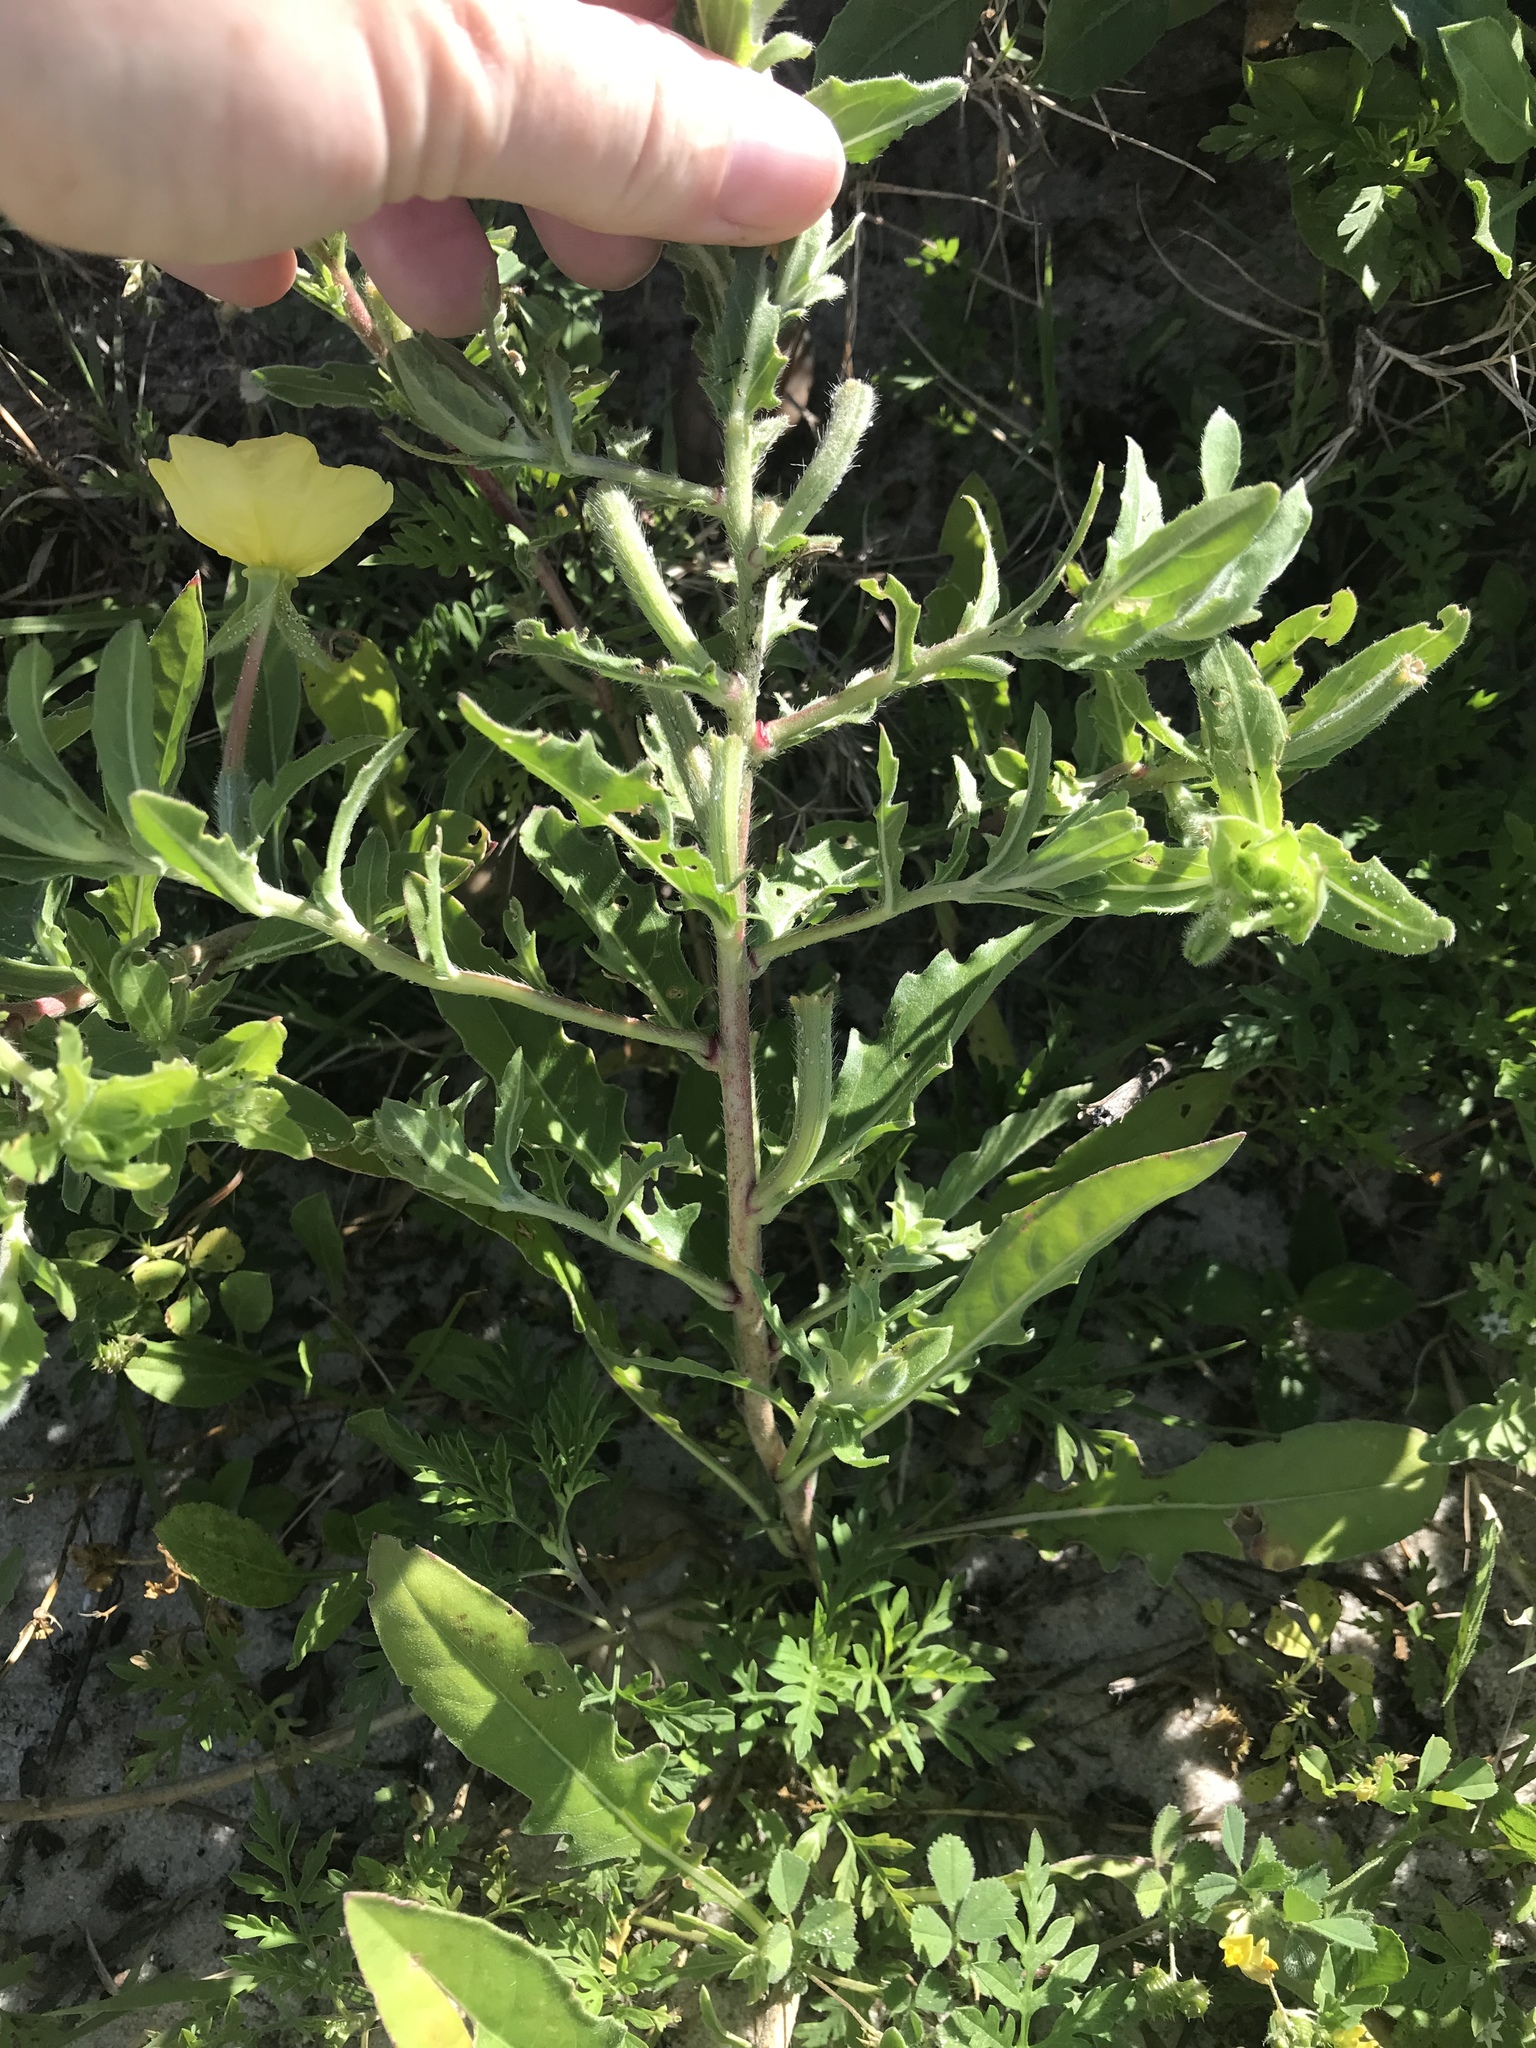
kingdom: Plantae
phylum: Tracheophyta
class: Magnoliopsida
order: Myrtales
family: Onagraceae
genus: Oenothera
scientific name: Oenothera laciniata
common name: Cut-leaved evening-primrose
